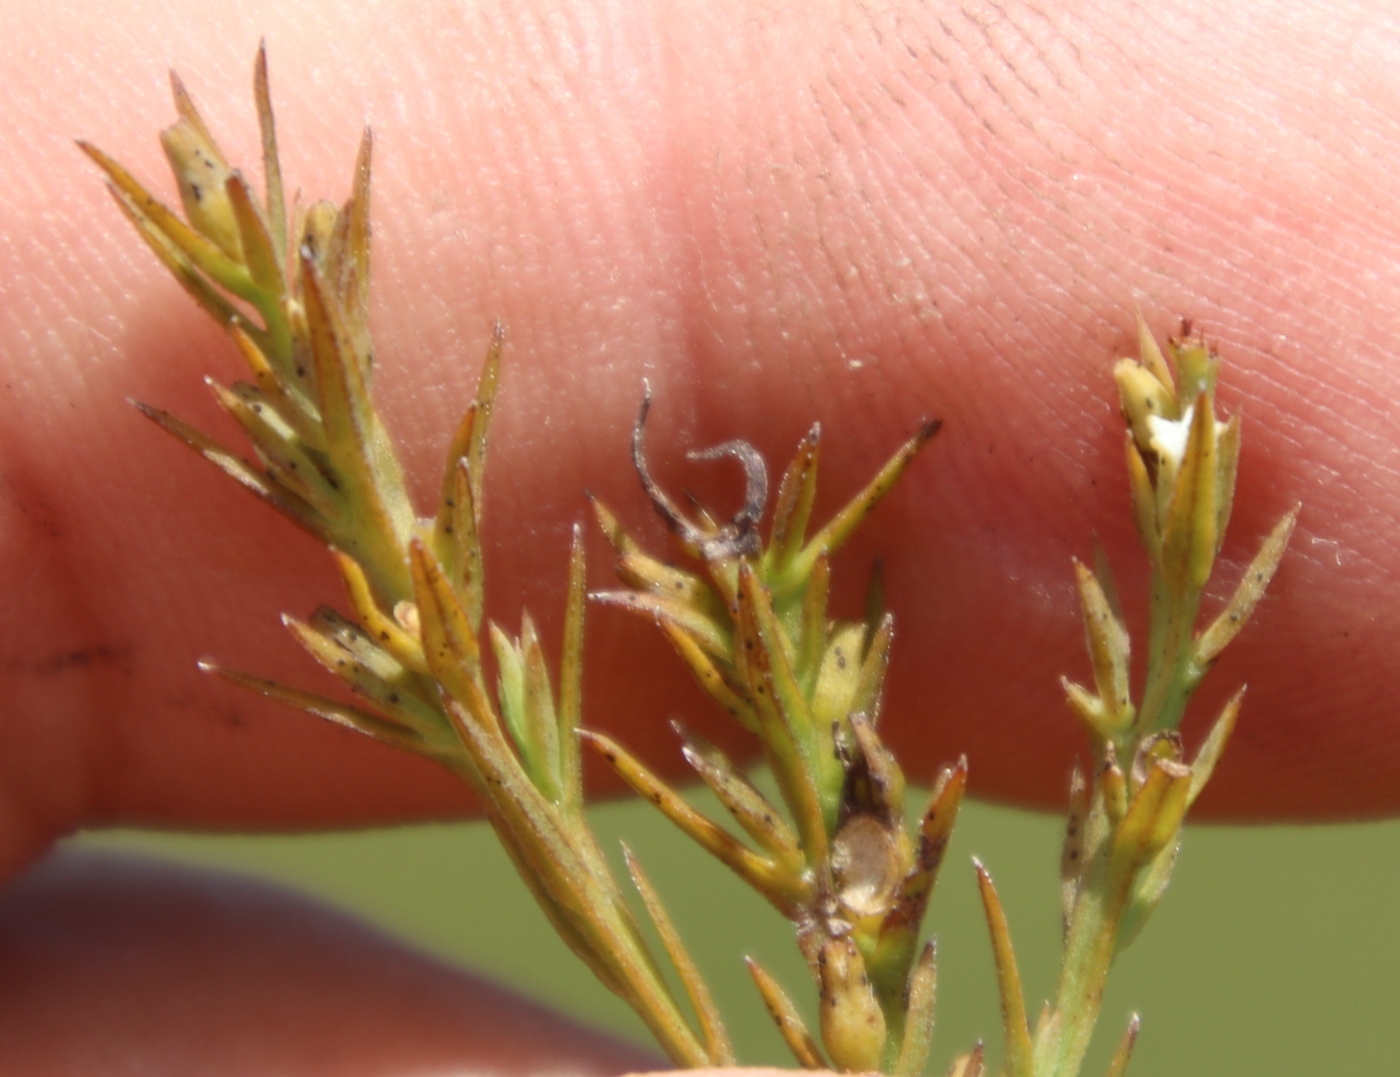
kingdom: Plantae
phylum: Tracheophyta
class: Magnoliopsida
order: Santalales
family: Thesiaceae
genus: Thesium
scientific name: Thesium gracilarioides
